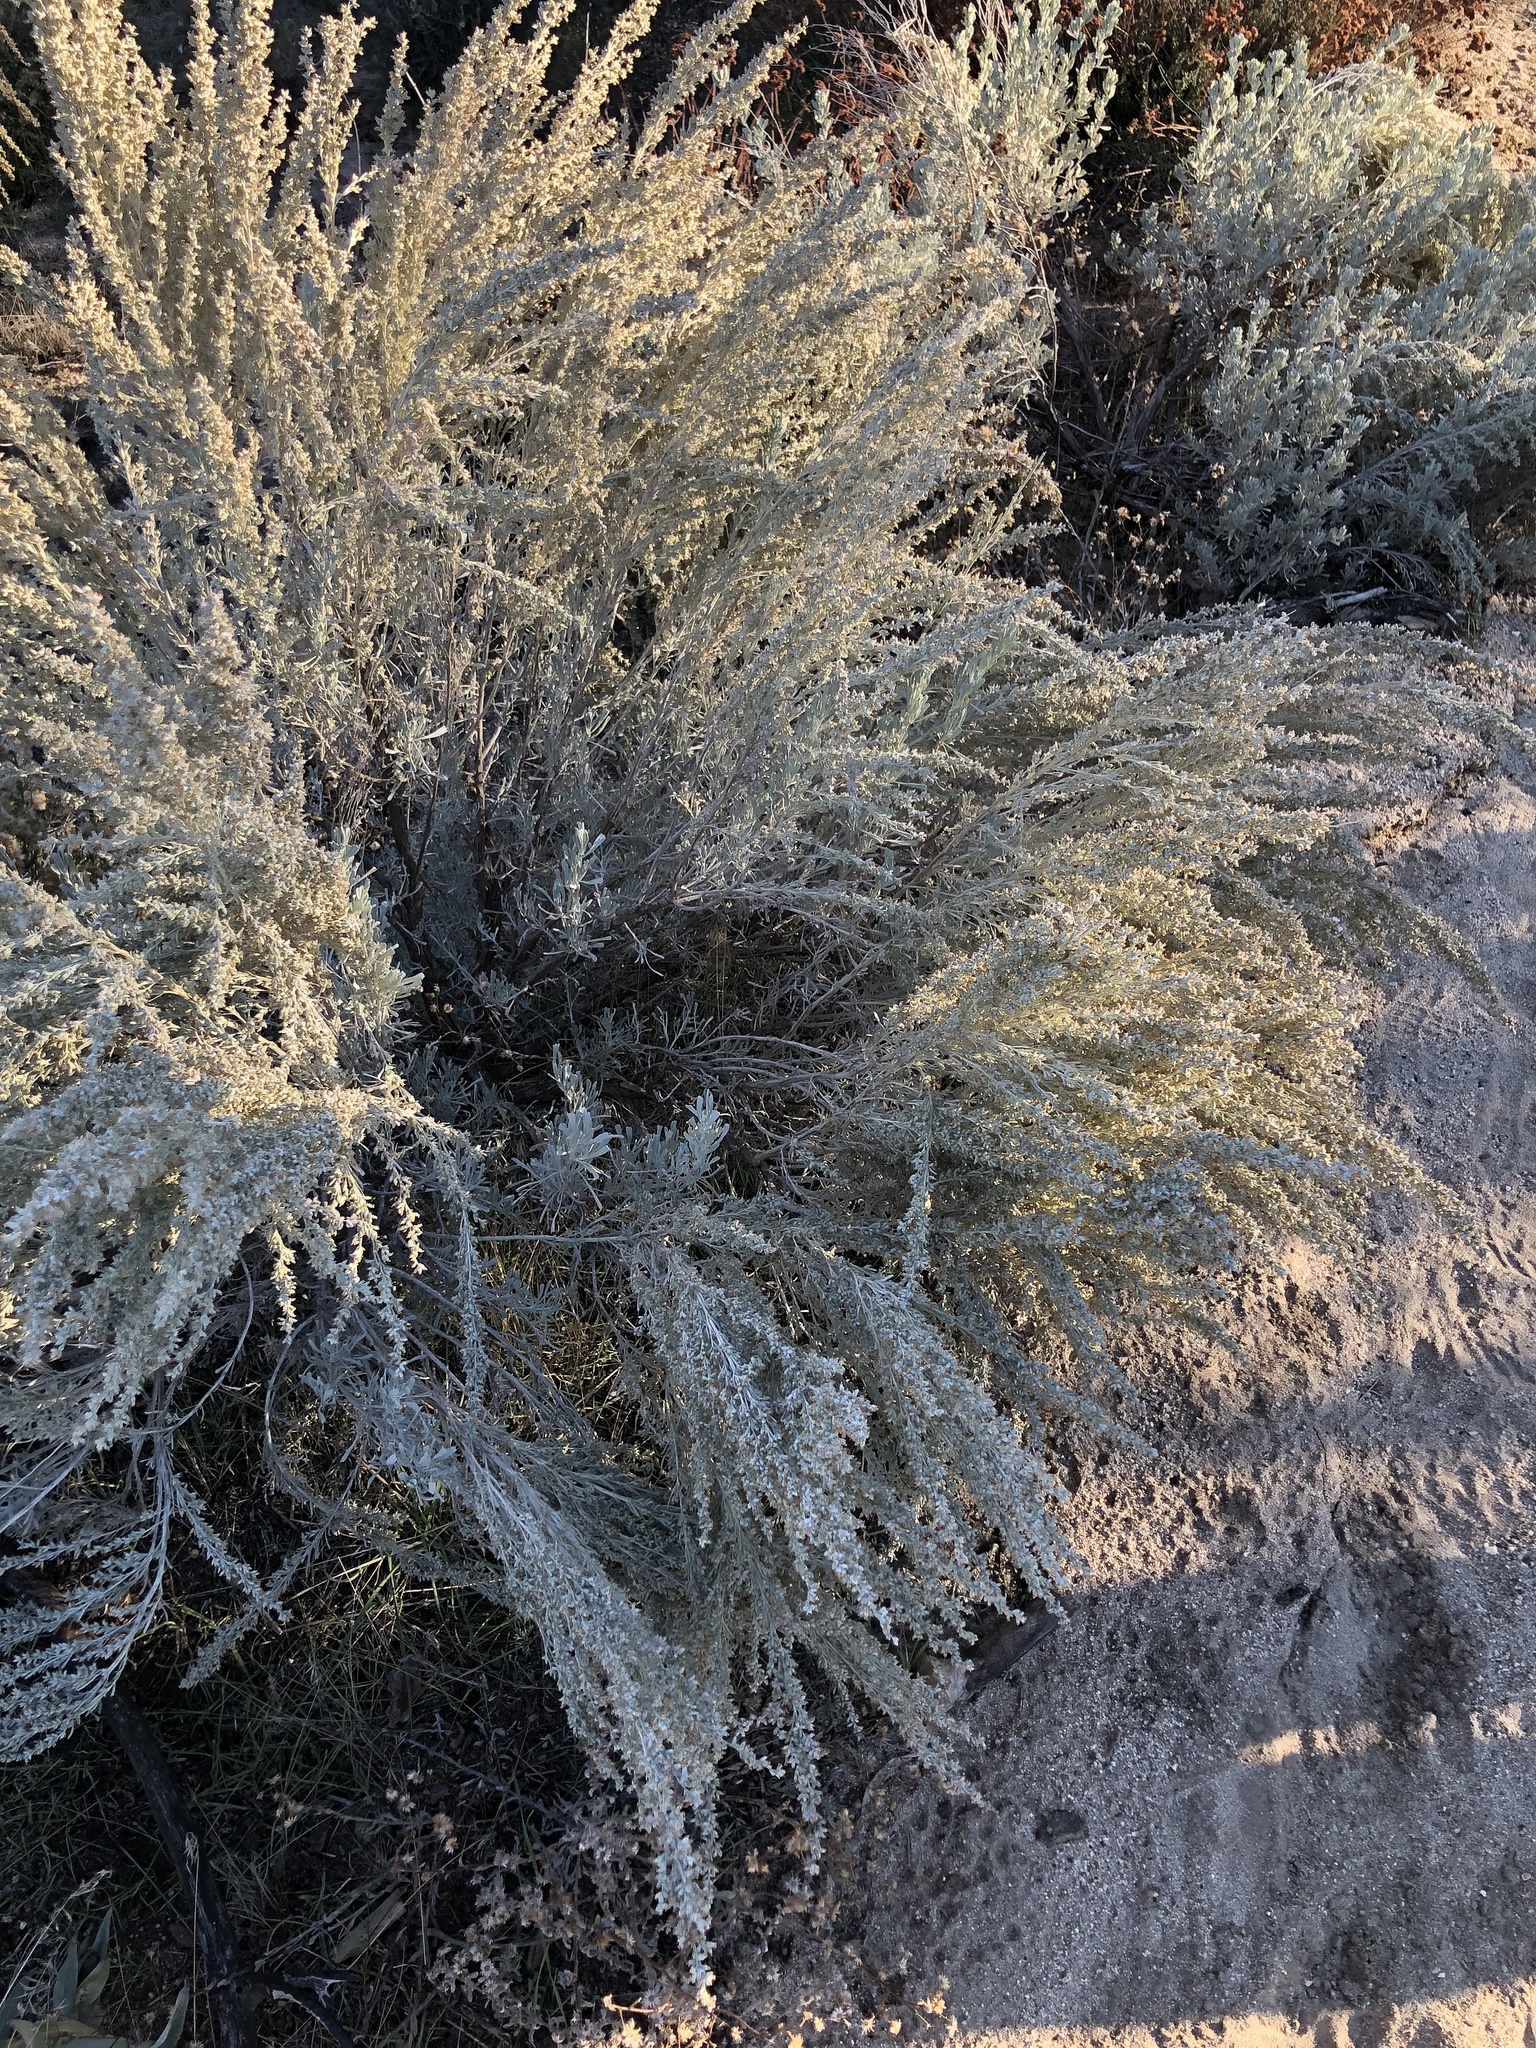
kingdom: Plantae
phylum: Tracheophyta
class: Magnoliopsida
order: Asterales
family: Asteraceae
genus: Artemisia
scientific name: Artemisia tridentata
